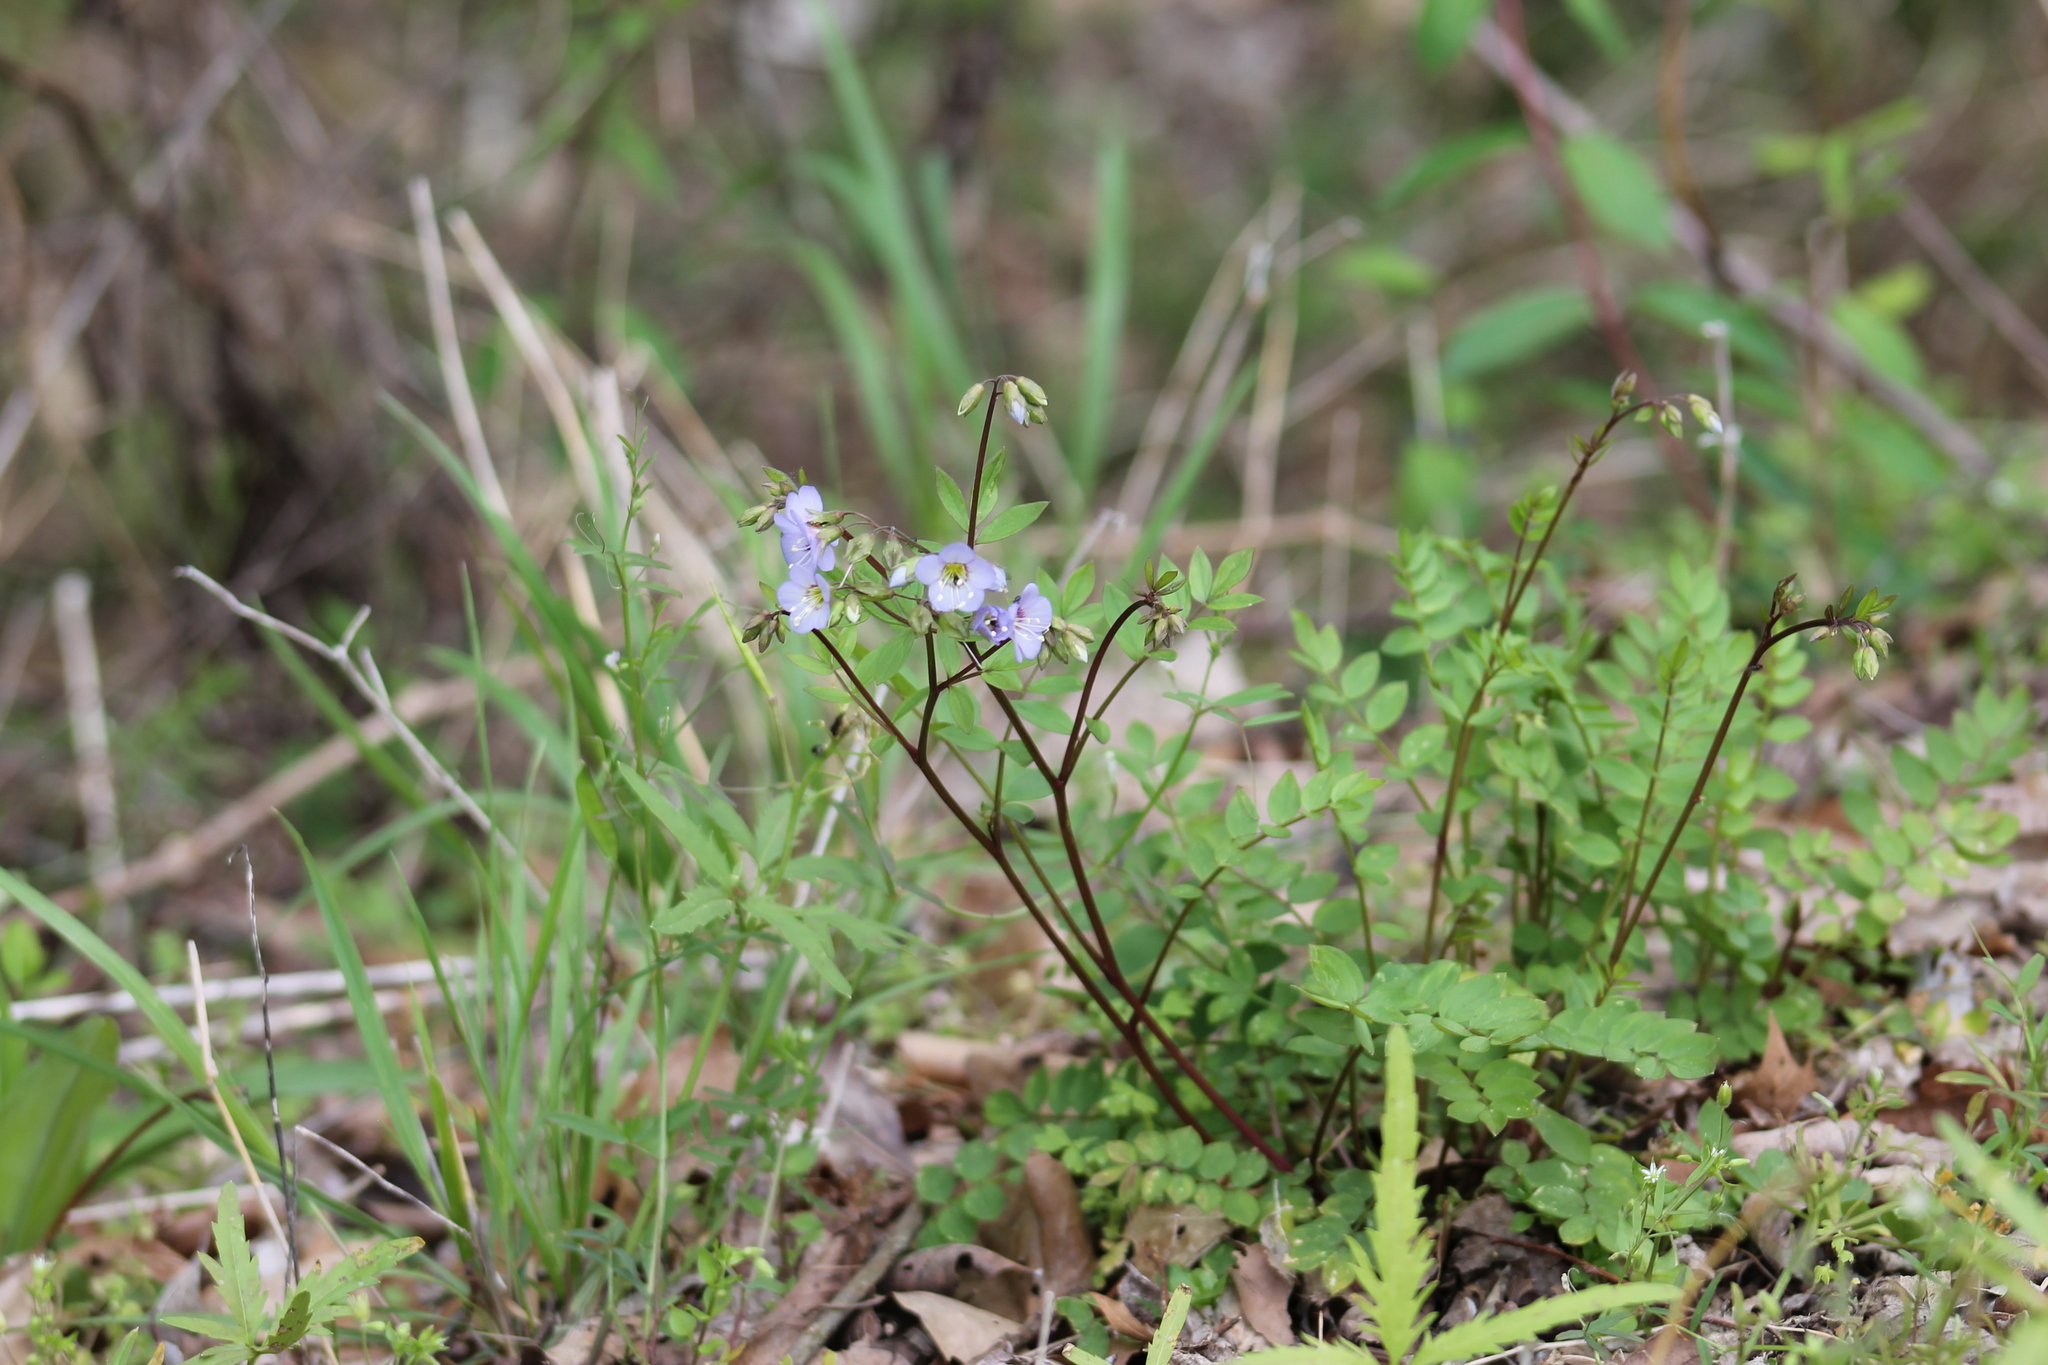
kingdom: Plantae
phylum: Tracheophyta
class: Magnoliopsida
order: Ericales
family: Polemoniaceae
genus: Polemonium
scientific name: Polemonium reptans
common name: Creeping jacob's-ladder
